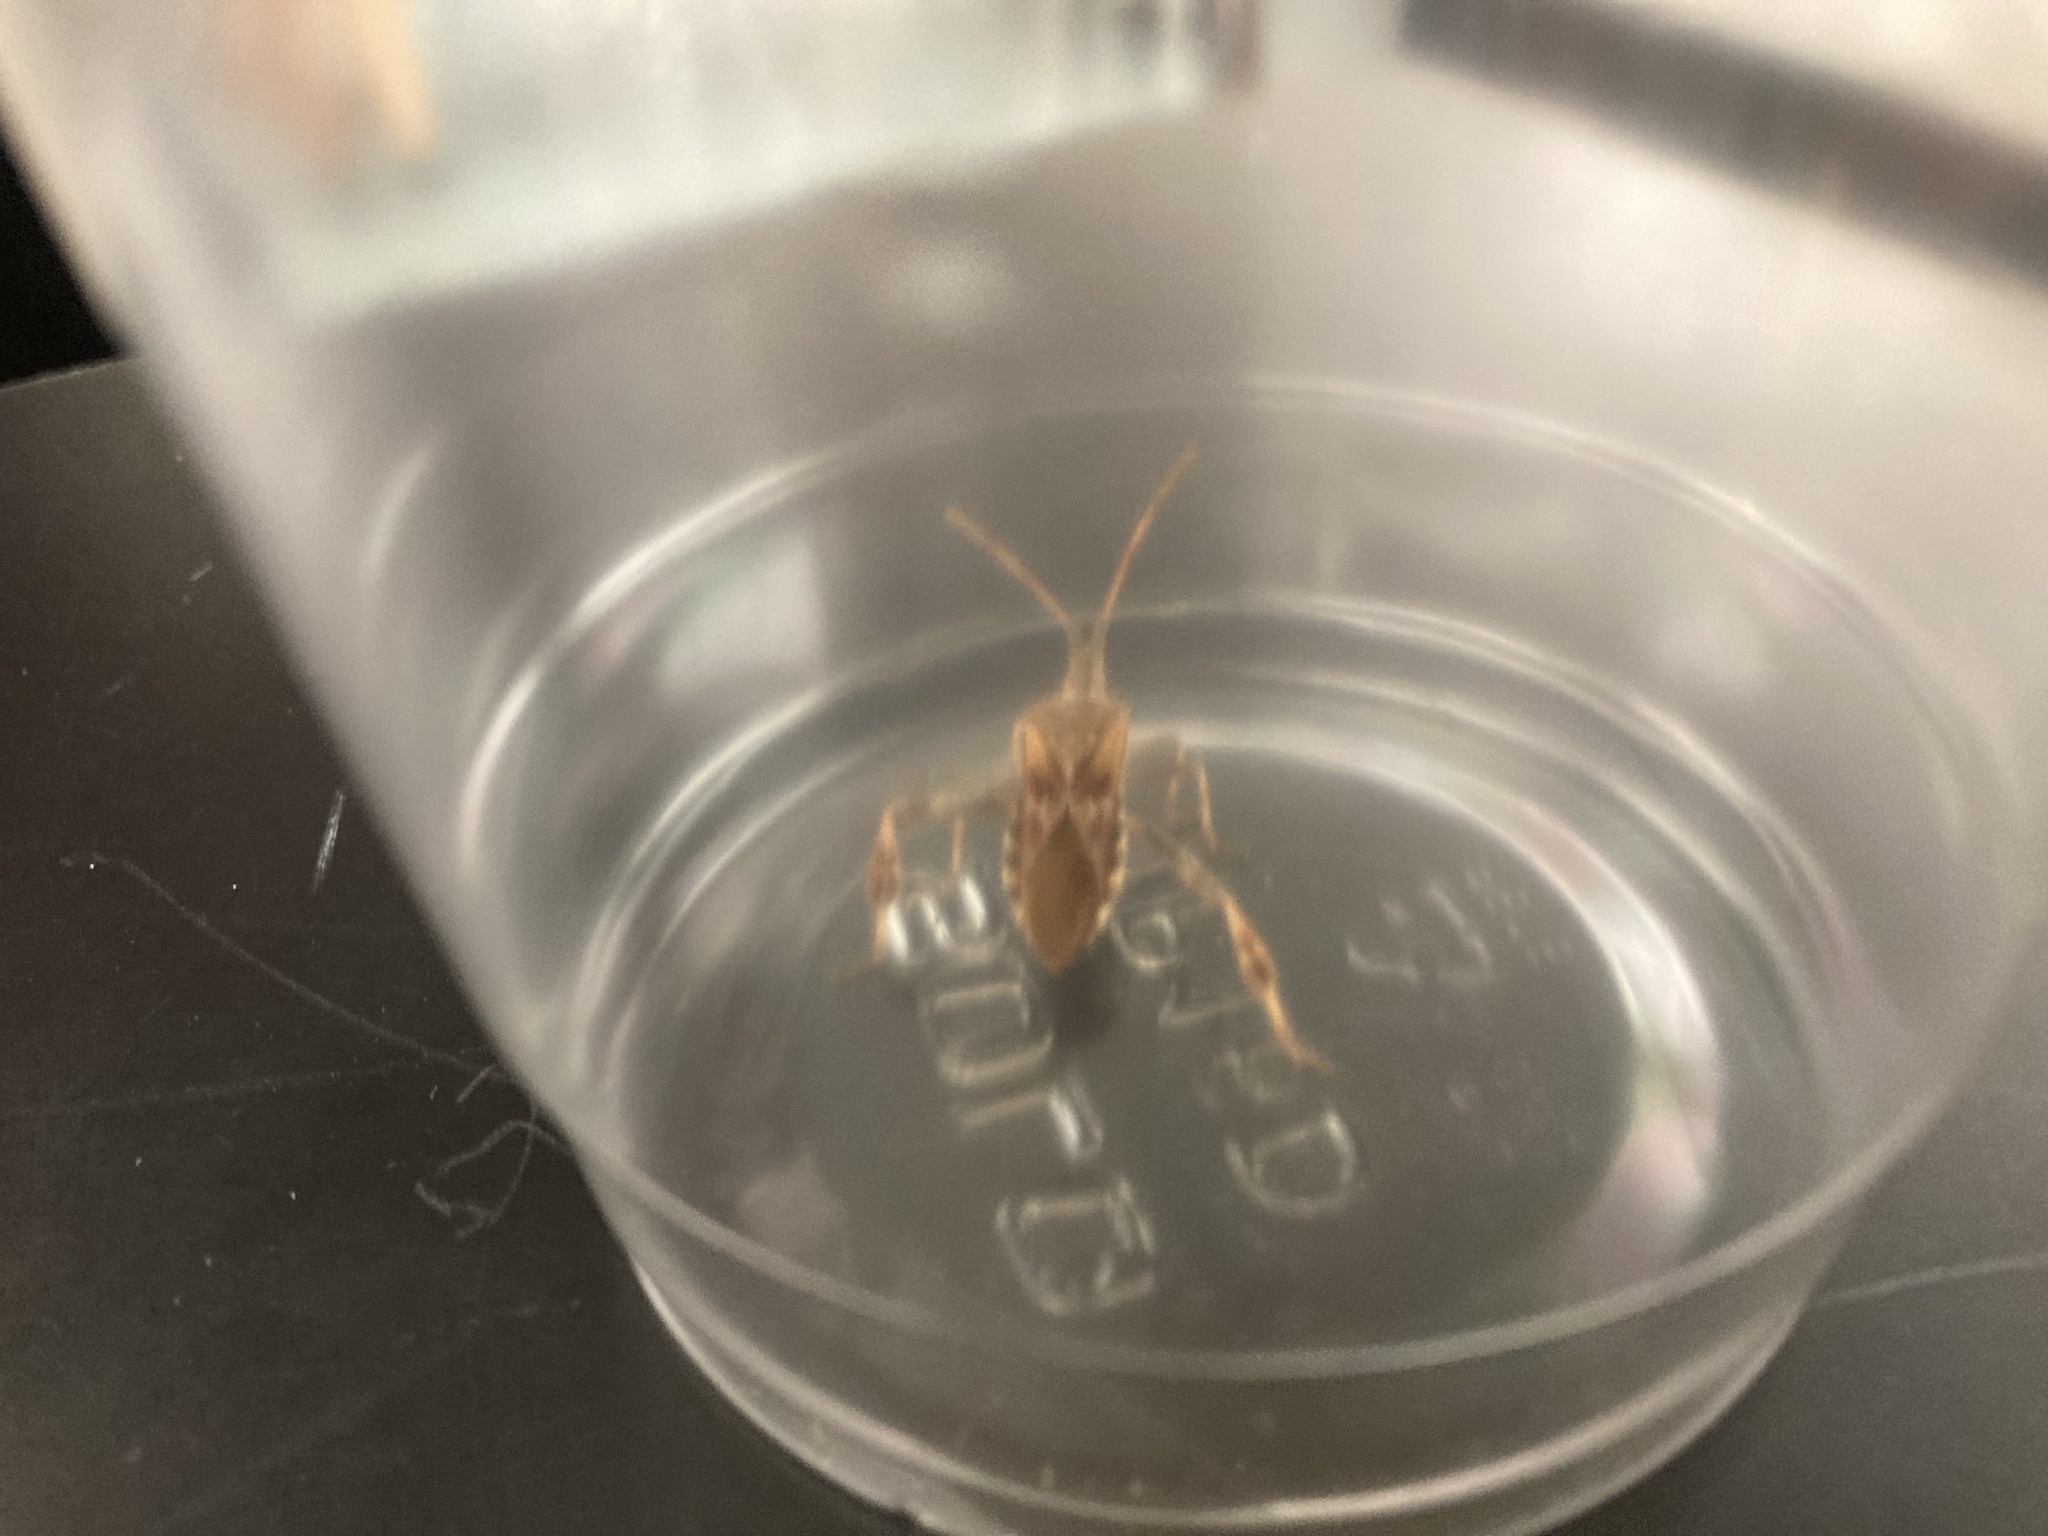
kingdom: Animalia
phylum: Arthropoda
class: Insecta
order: Hemiptera
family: Coreidae
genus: Leptoglossus
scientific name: Leptoglossus occidentalis
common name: Western conifer-seed bug
